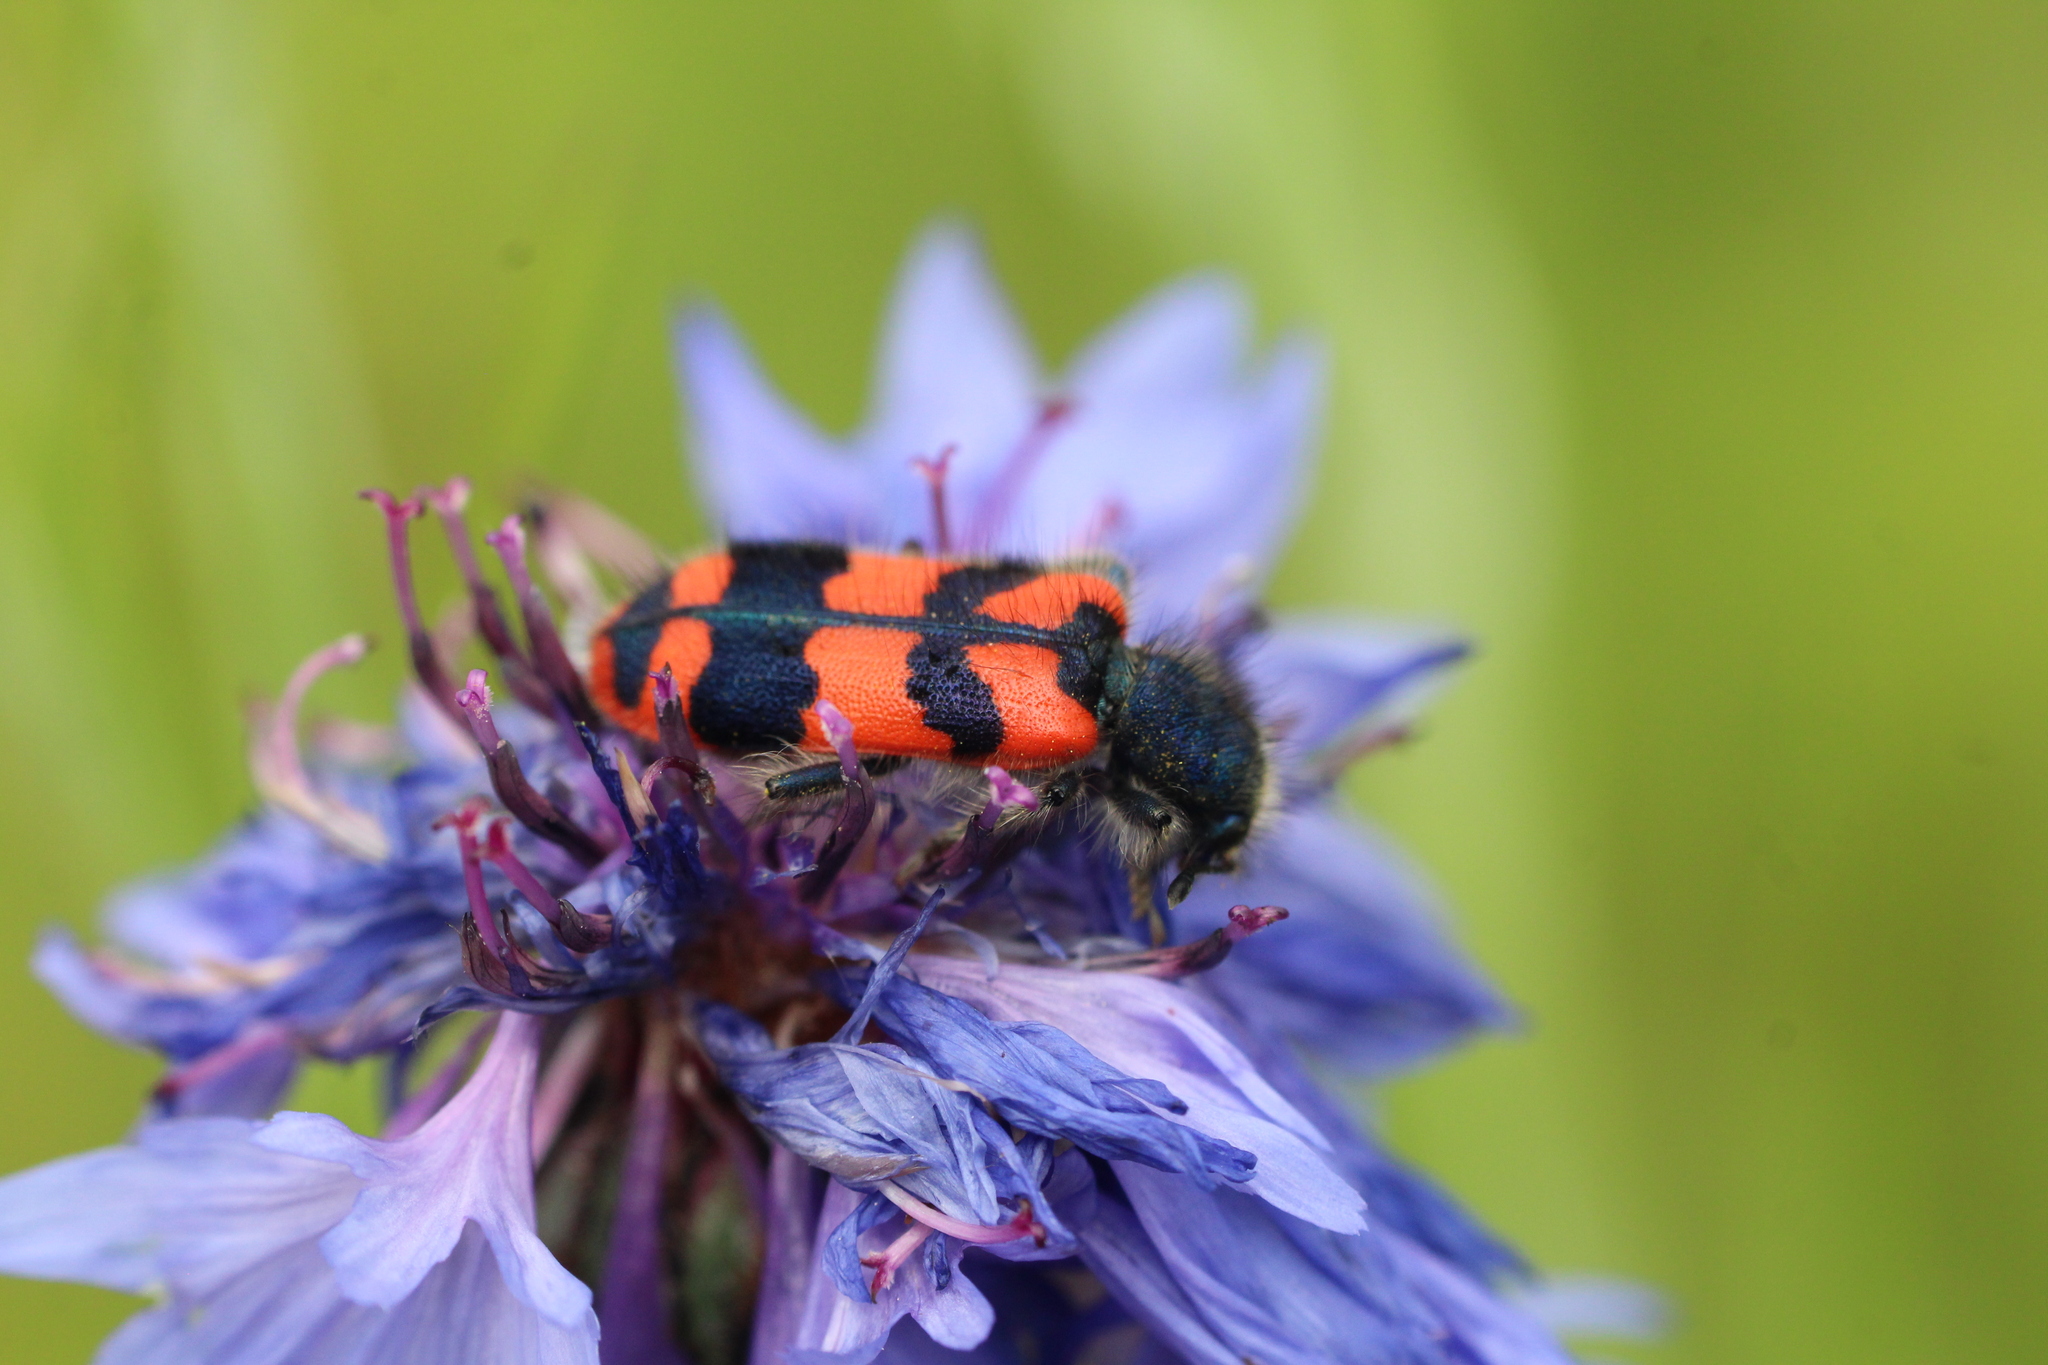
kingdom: Animalia
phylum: Arthropoda
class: Insecta
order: Coleoptera
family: Cleridae
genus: Trichodes
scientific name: Trichodes alvearius
